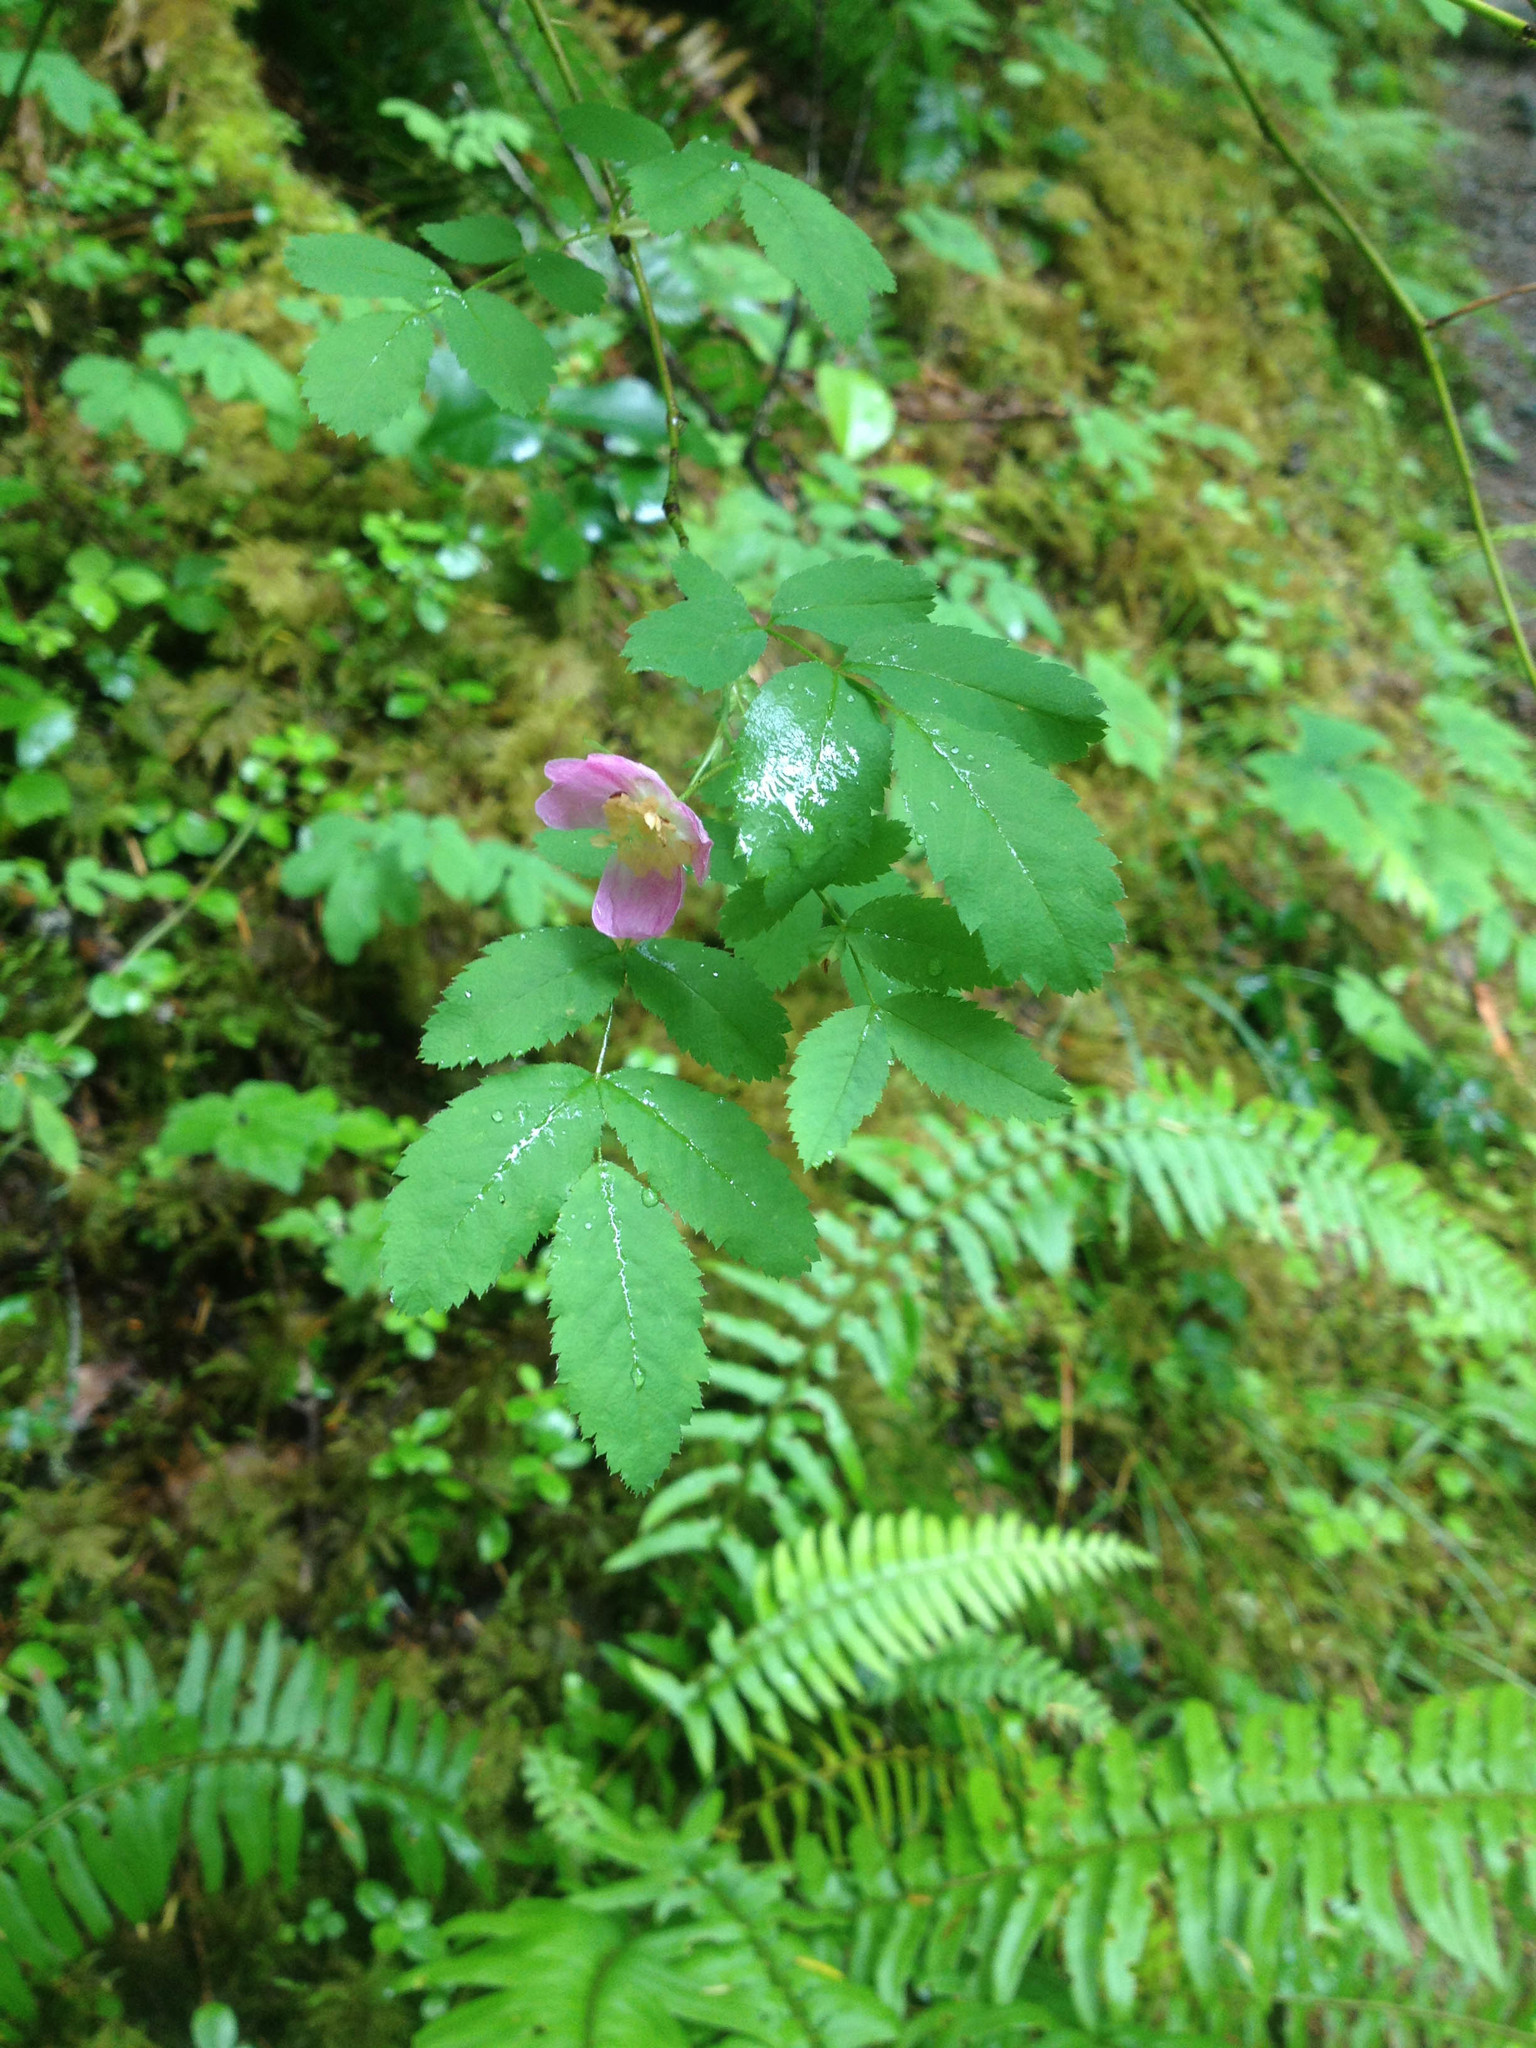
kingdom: Plantae
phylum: Tracheophyta
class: Magnoliopsida
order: Rosales
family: Rosaceae
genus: Rosa
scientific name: Rosa gymnocarpa
